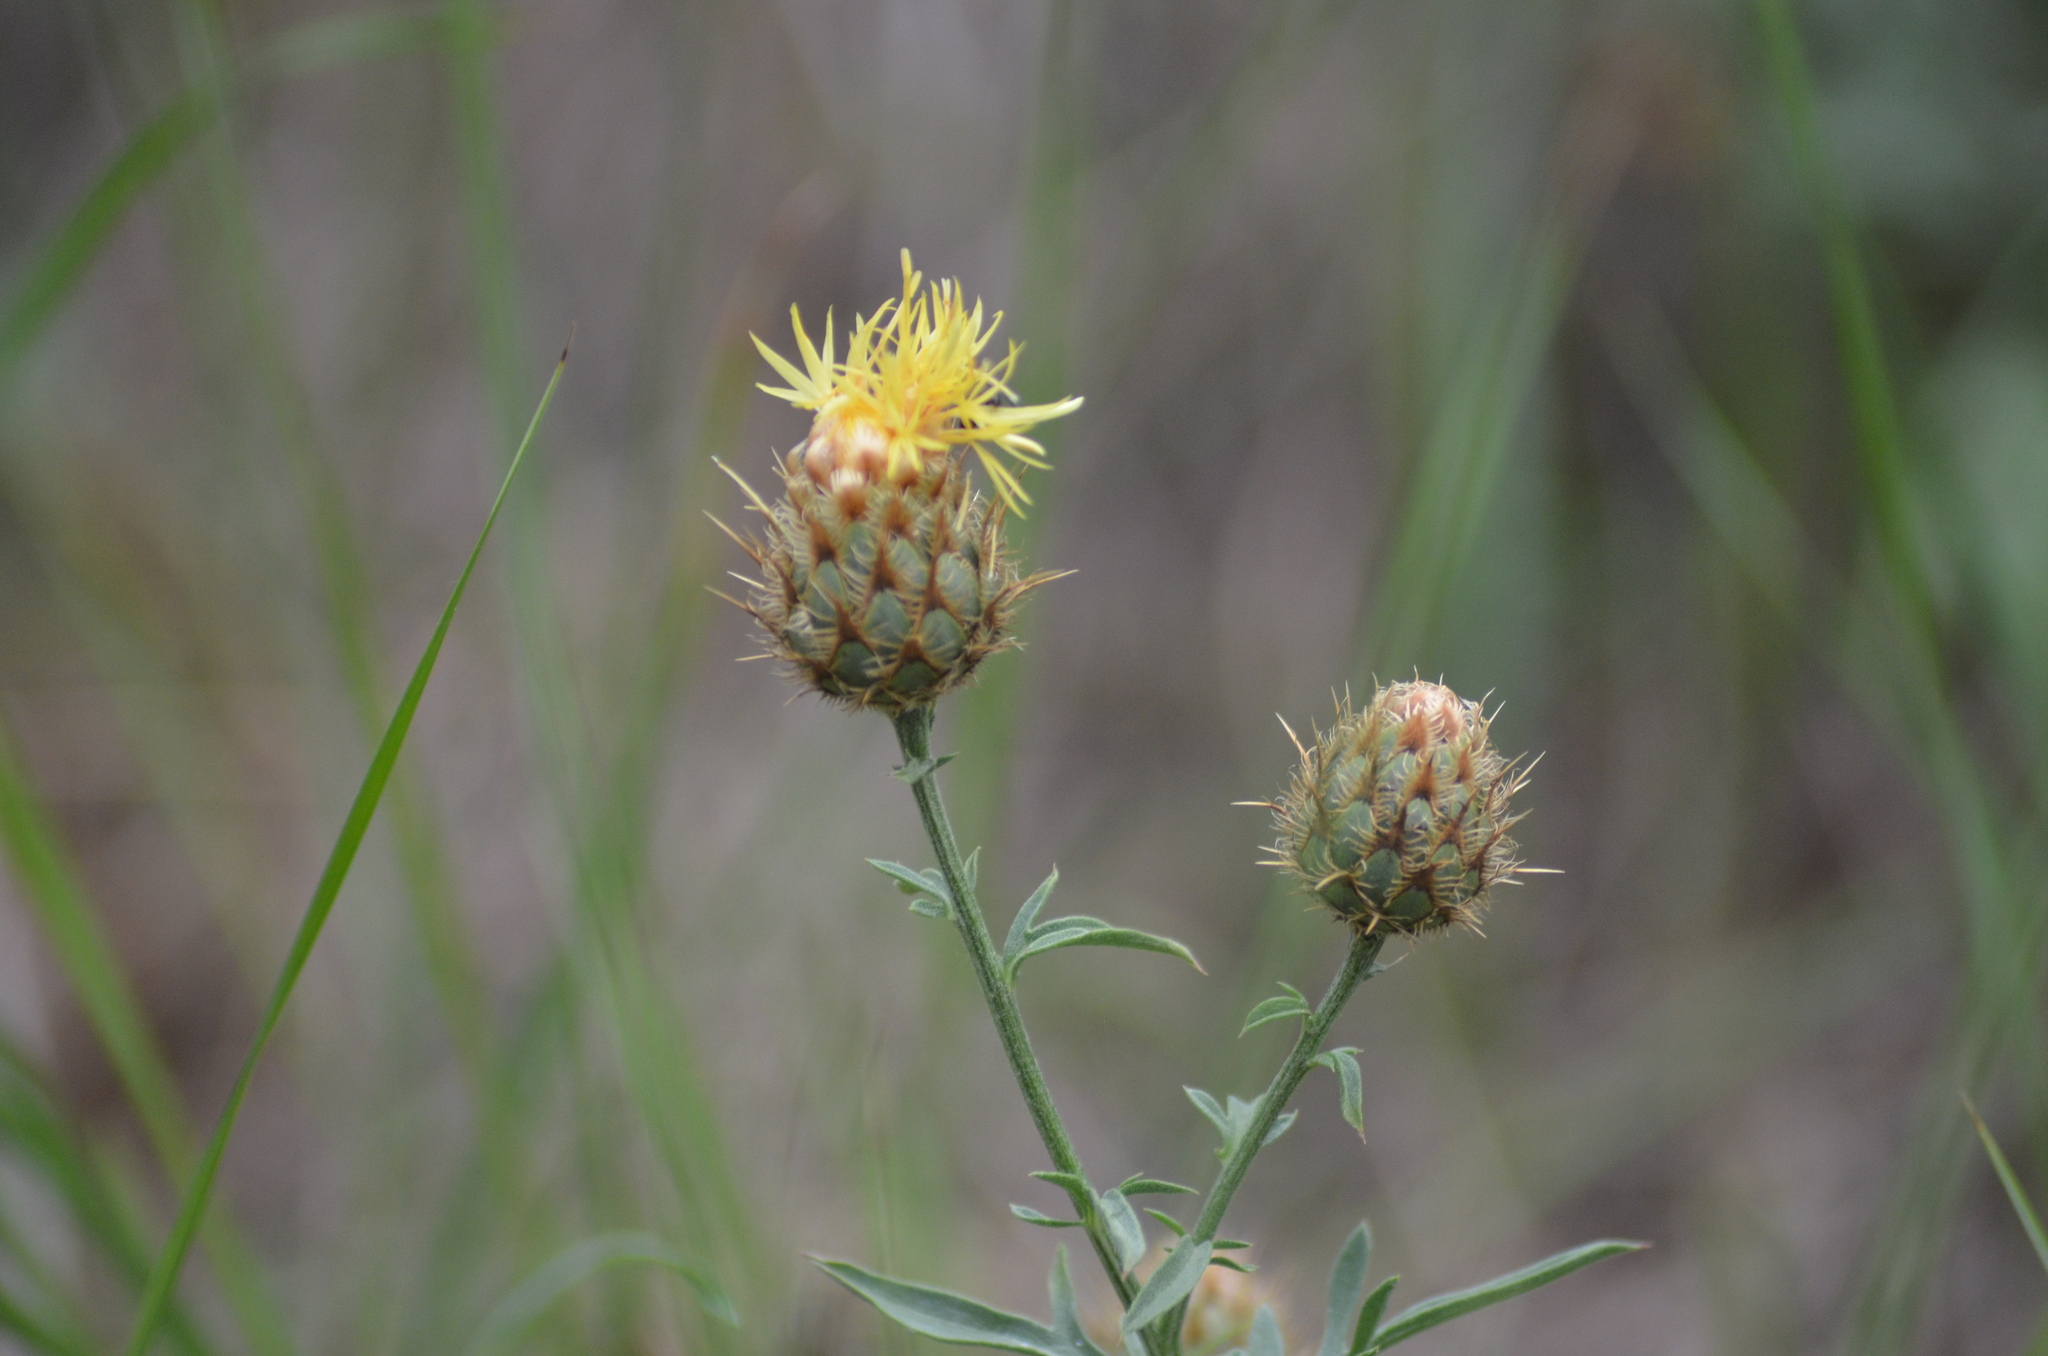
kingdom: Plantae
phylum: Tracheophyta
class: Magnoliopsida
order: Asterales
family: Asteraceae
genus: Centaurea
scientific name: Centaurea collina
